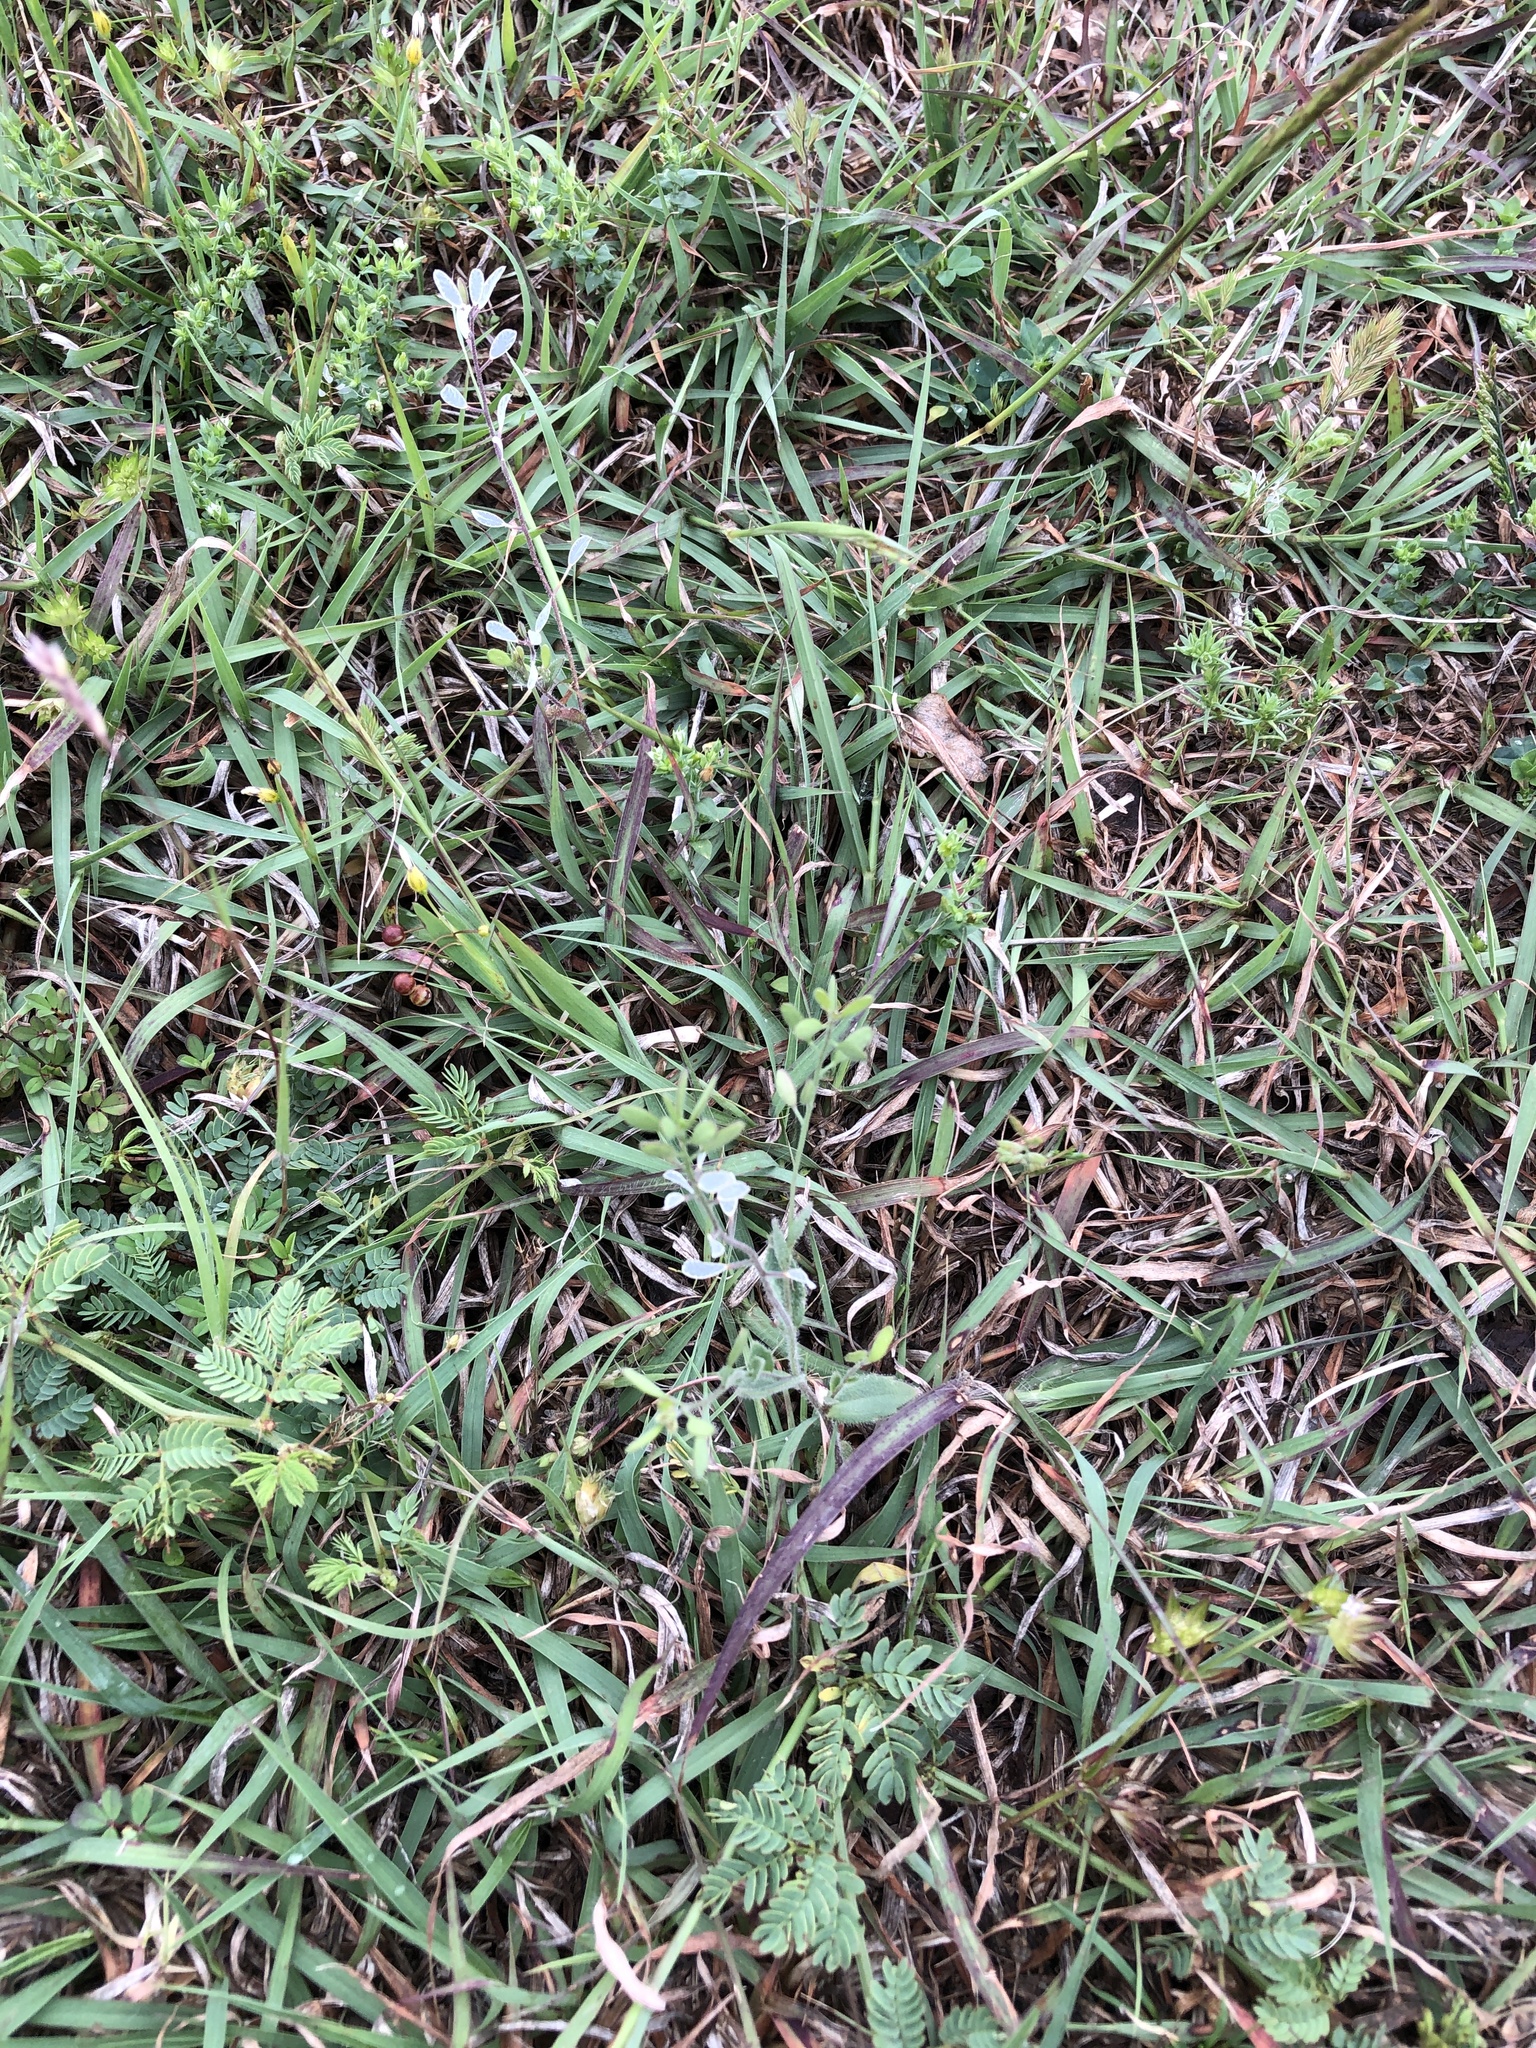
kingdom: Plantae
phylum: Tracheophyta
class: Magnoliopsida
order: Brassicales
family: Brassicaceae
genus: Tomostima
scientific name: Tomostima platycarpa
